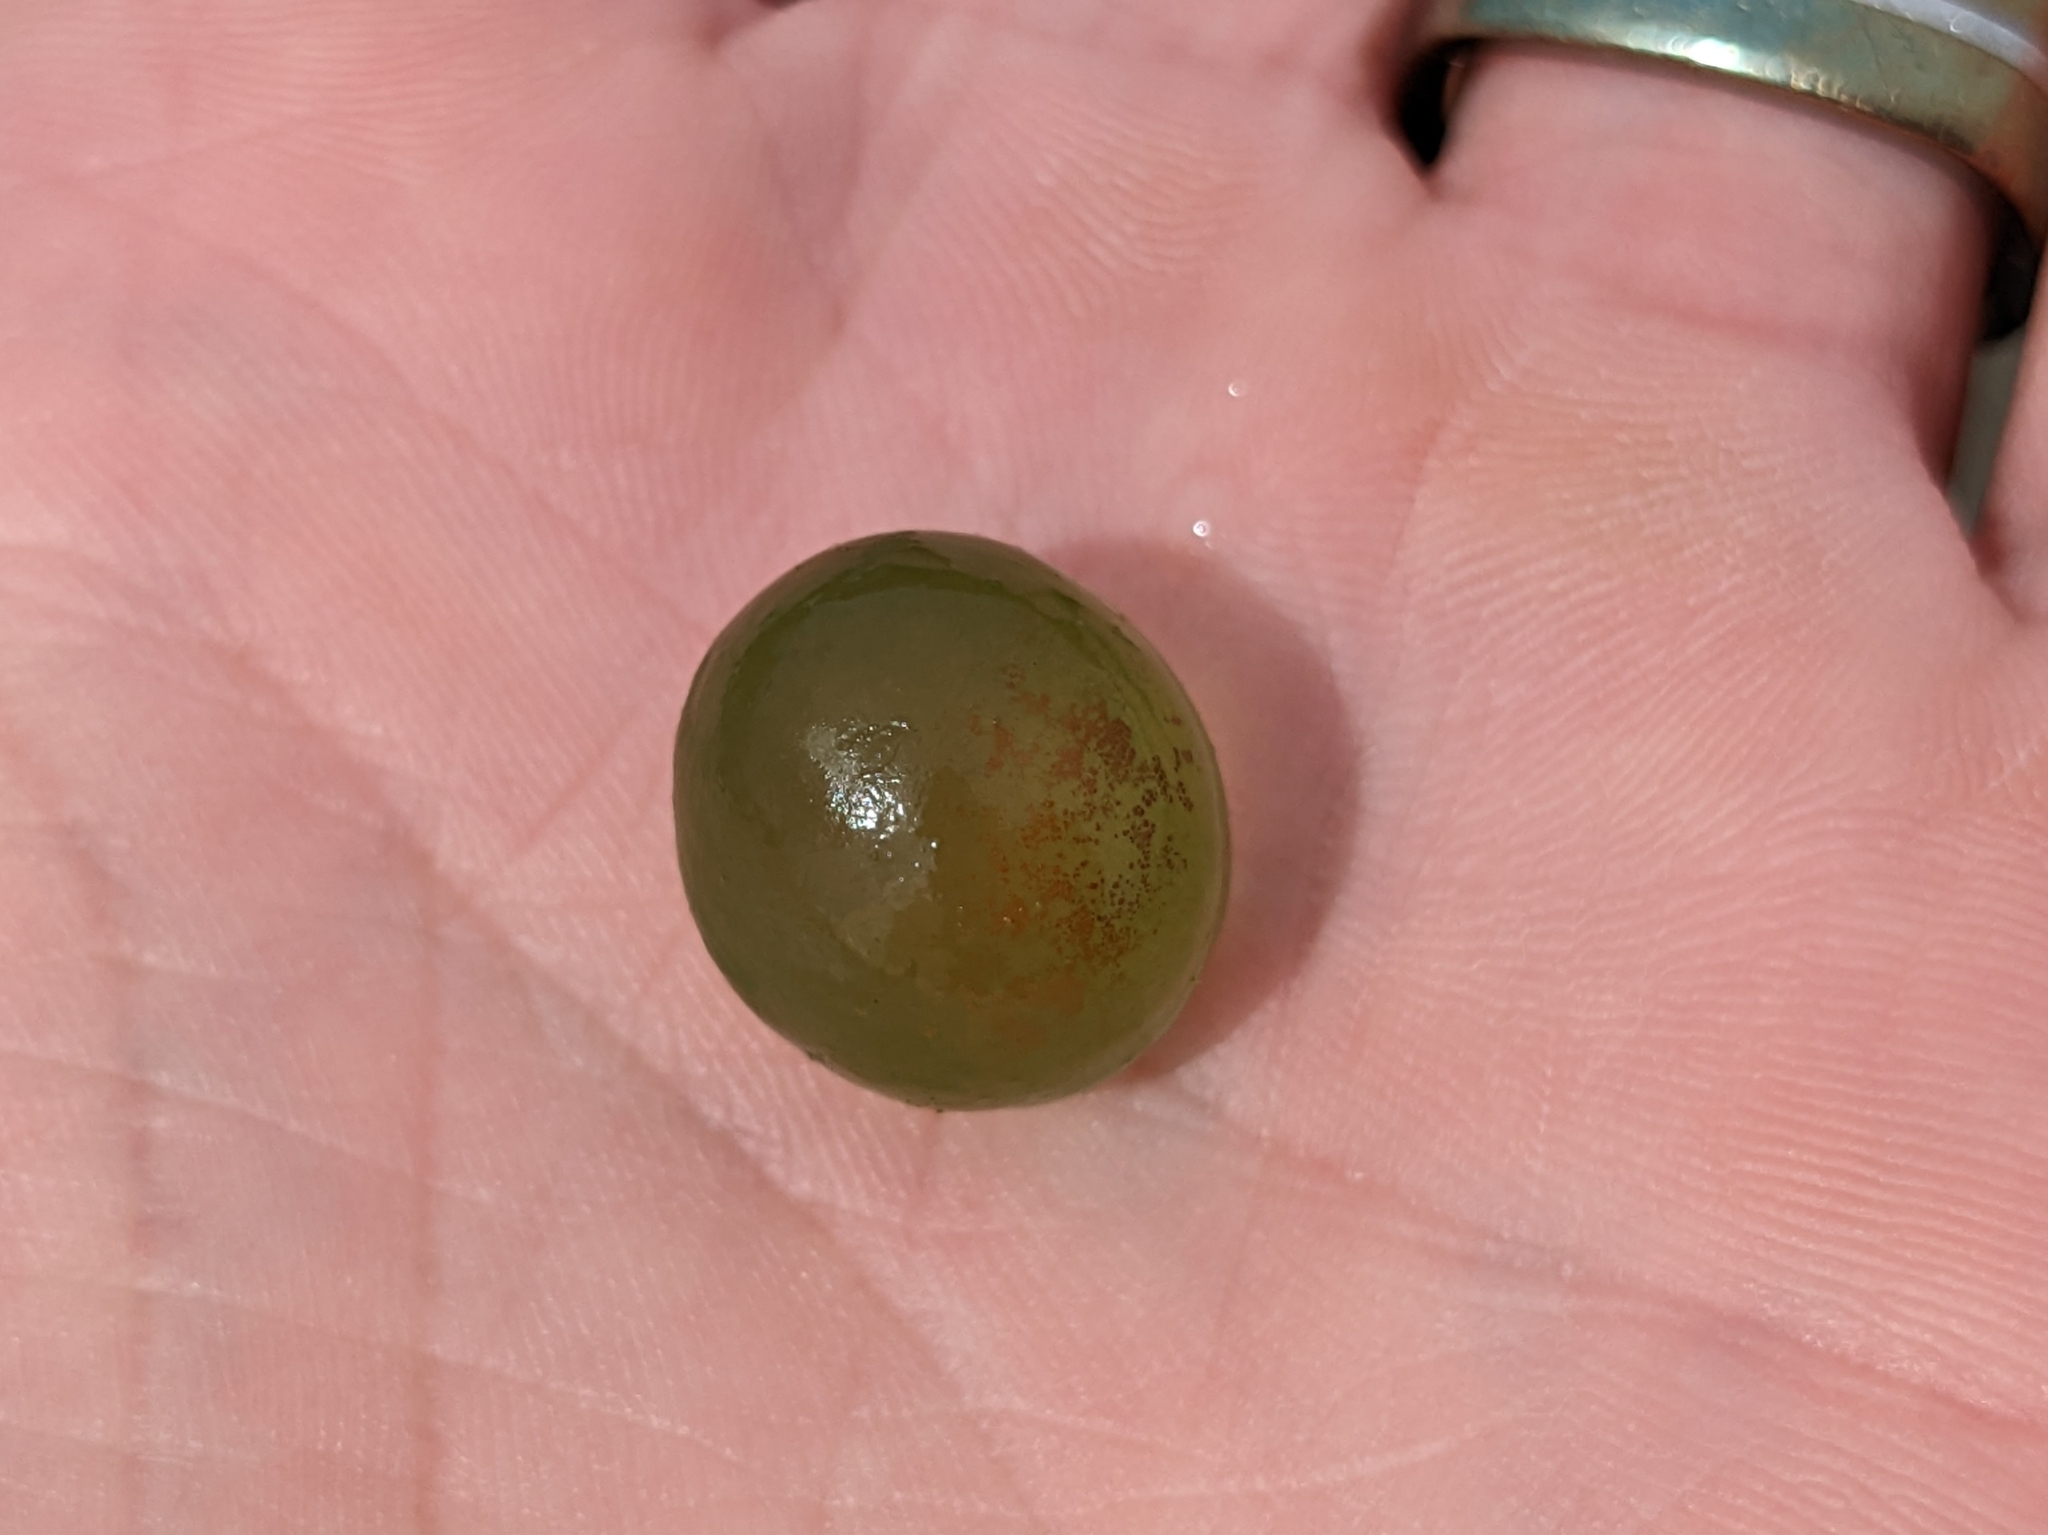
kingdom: Bacteria
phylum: Cyanobacteria
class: Cyanobacteriia
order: Cyanobacteriales
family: Nostocaceae
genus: Nostoc
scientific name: Nostoc pruniforme
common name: Mare's eggs
